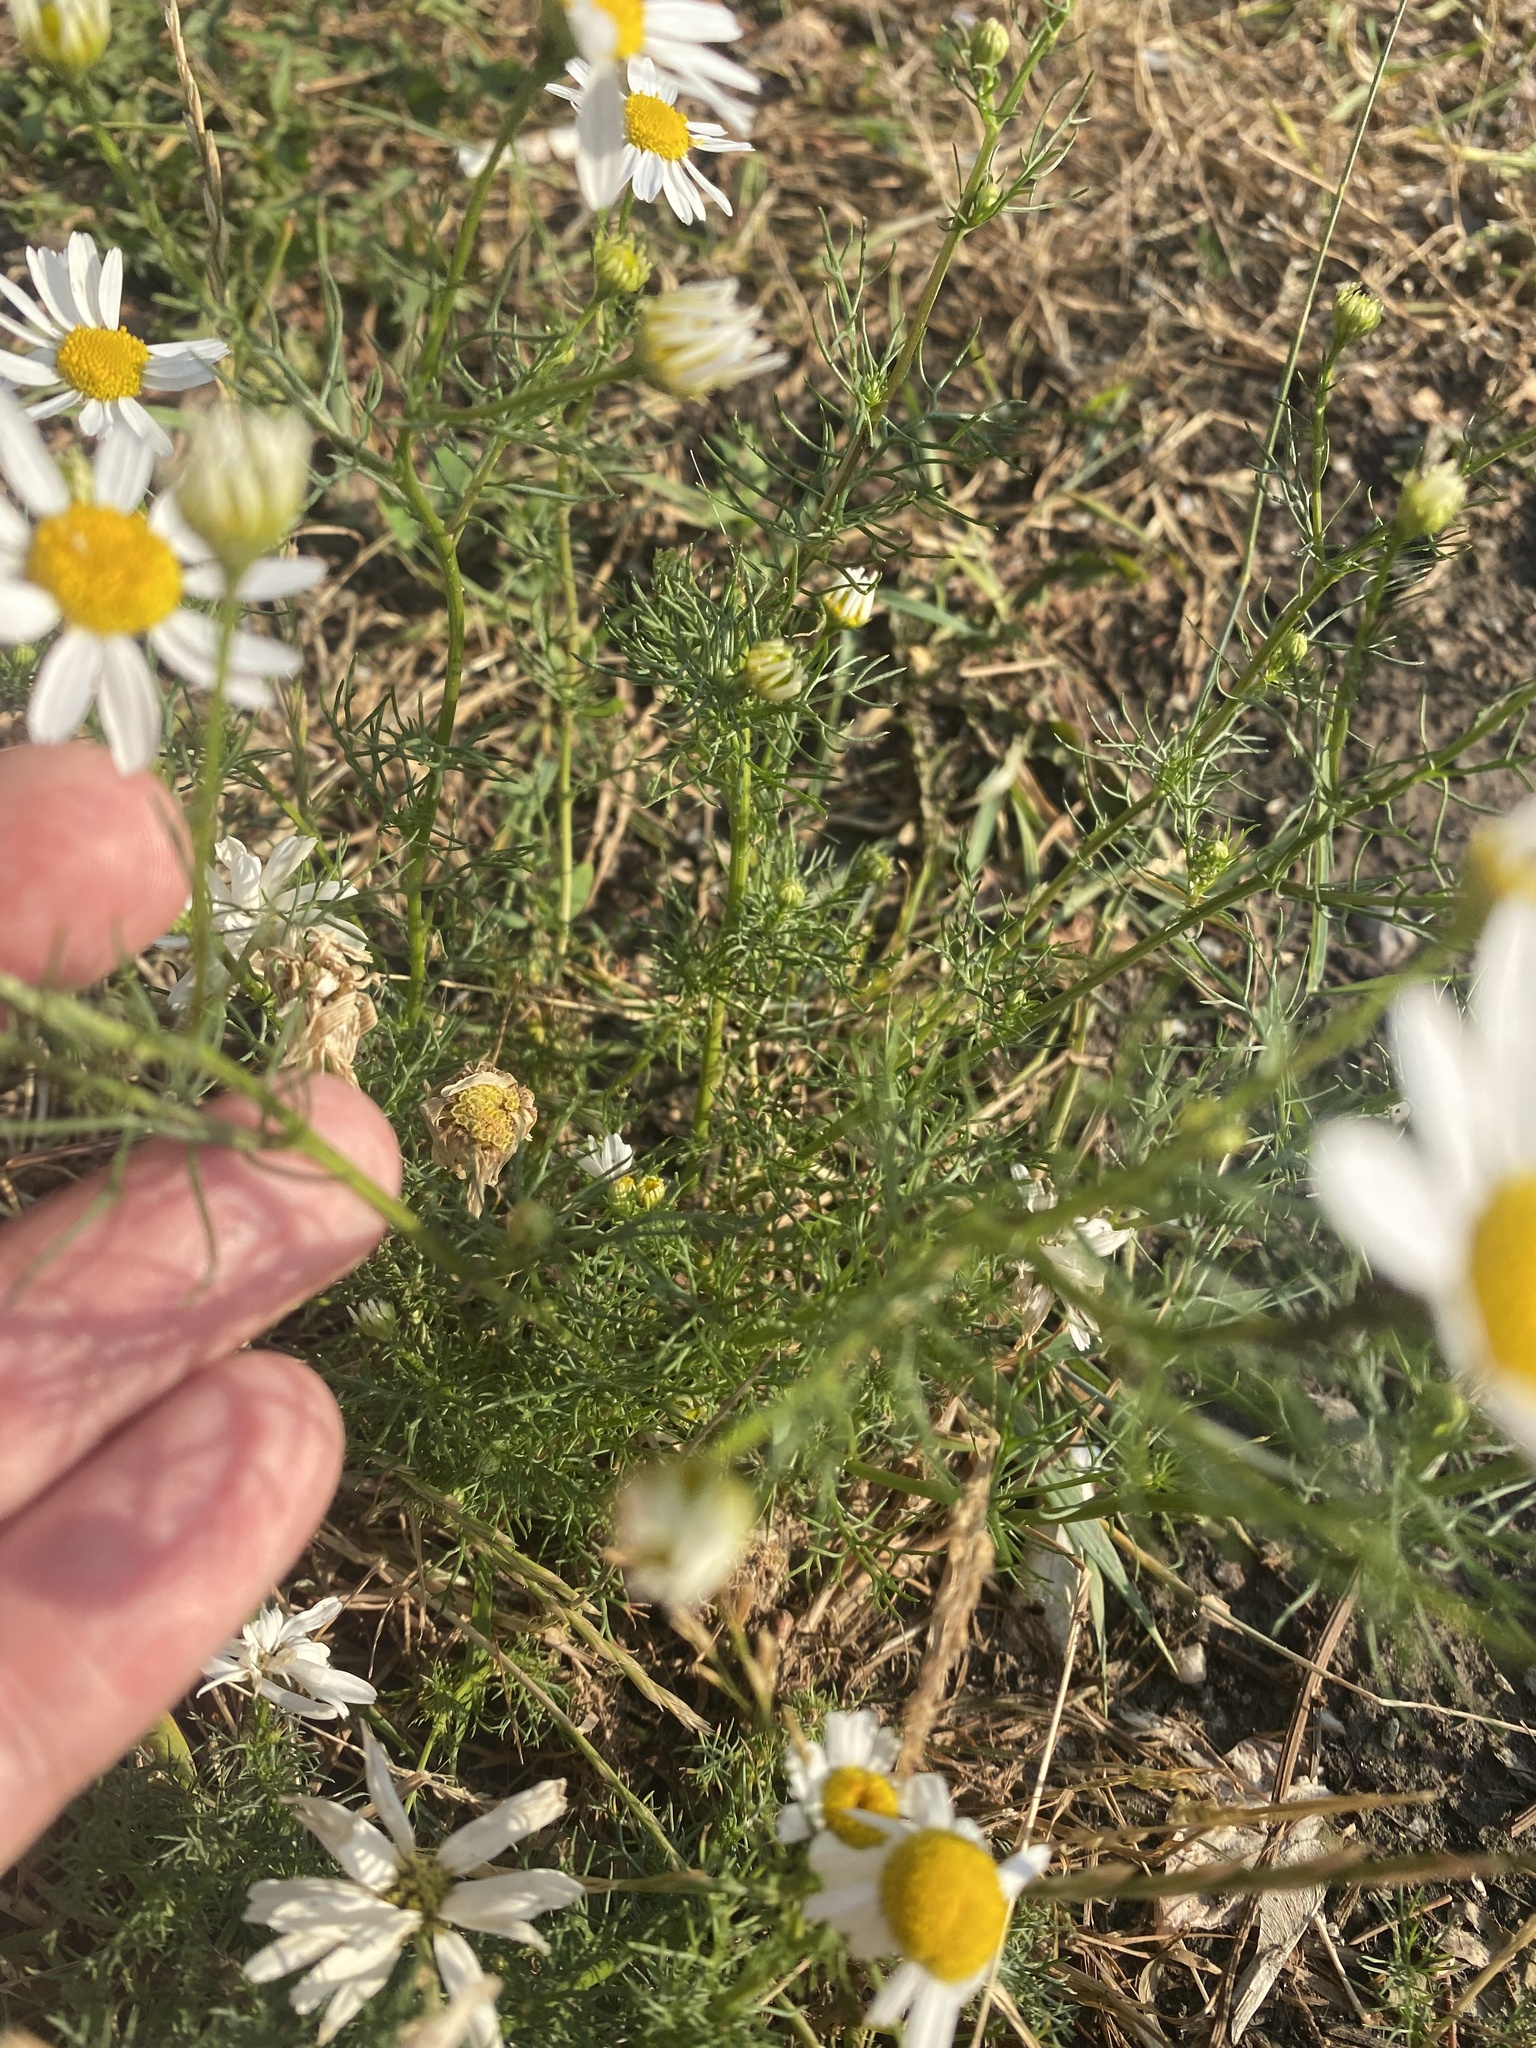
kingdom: Plantae
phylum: Tracheophyta
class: Magnoliopsida
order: Asterales
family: Asteraceae
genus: Tripleurospermum
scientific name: Tripleurospermum inodorum
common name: Scentless mayweed
